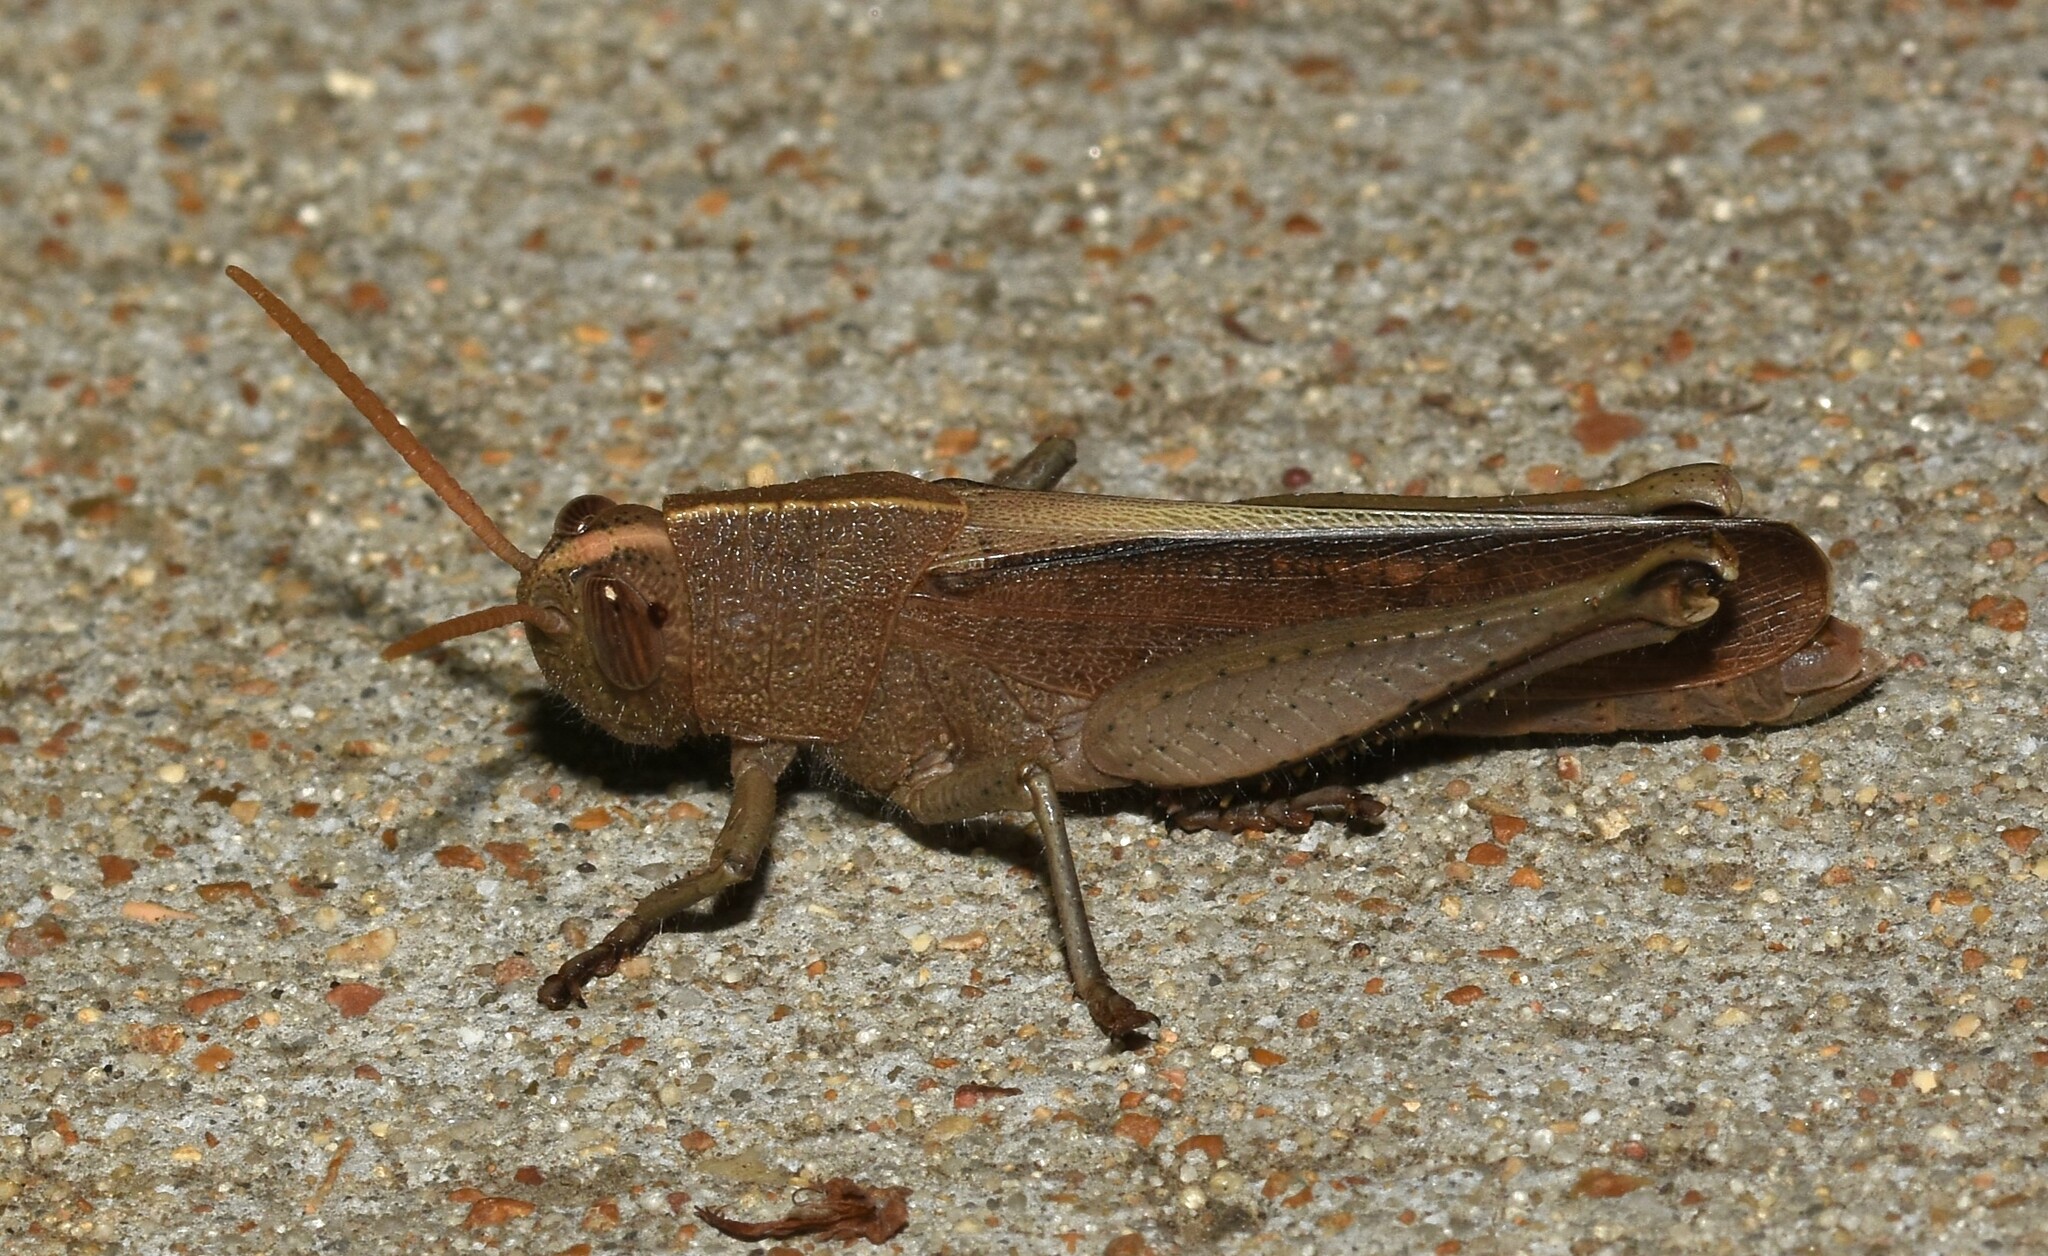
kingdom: Animalia
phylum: Arthropoda
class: Insecta
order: Orthoptera
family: Acrididae
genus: Schistocerca
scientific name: Schistocerca damnifica
